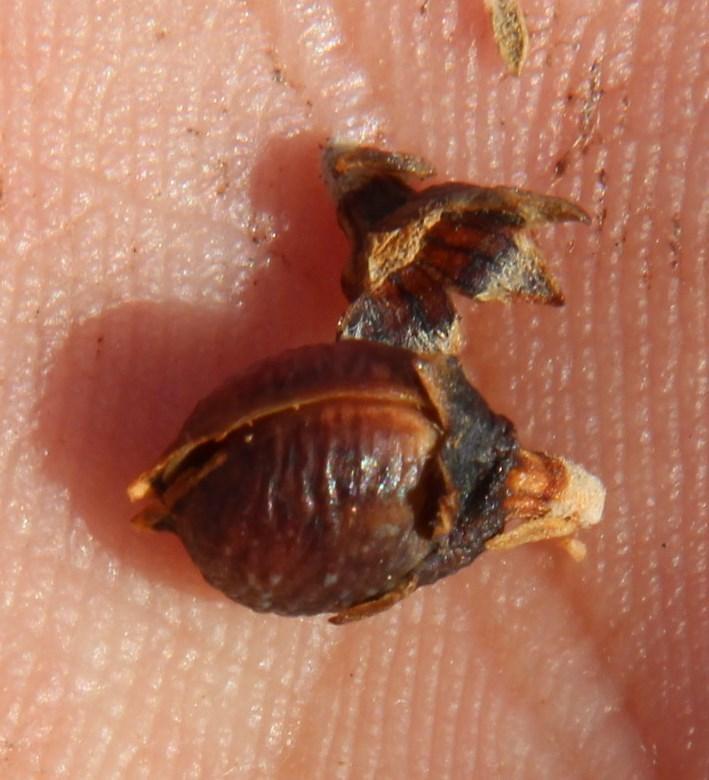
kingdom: Plantae
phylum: Tracheophyta
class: Magnoliopsida
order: Fabales
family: Fabaceae
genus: Aspalathus
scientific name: Aspalathus costulata
